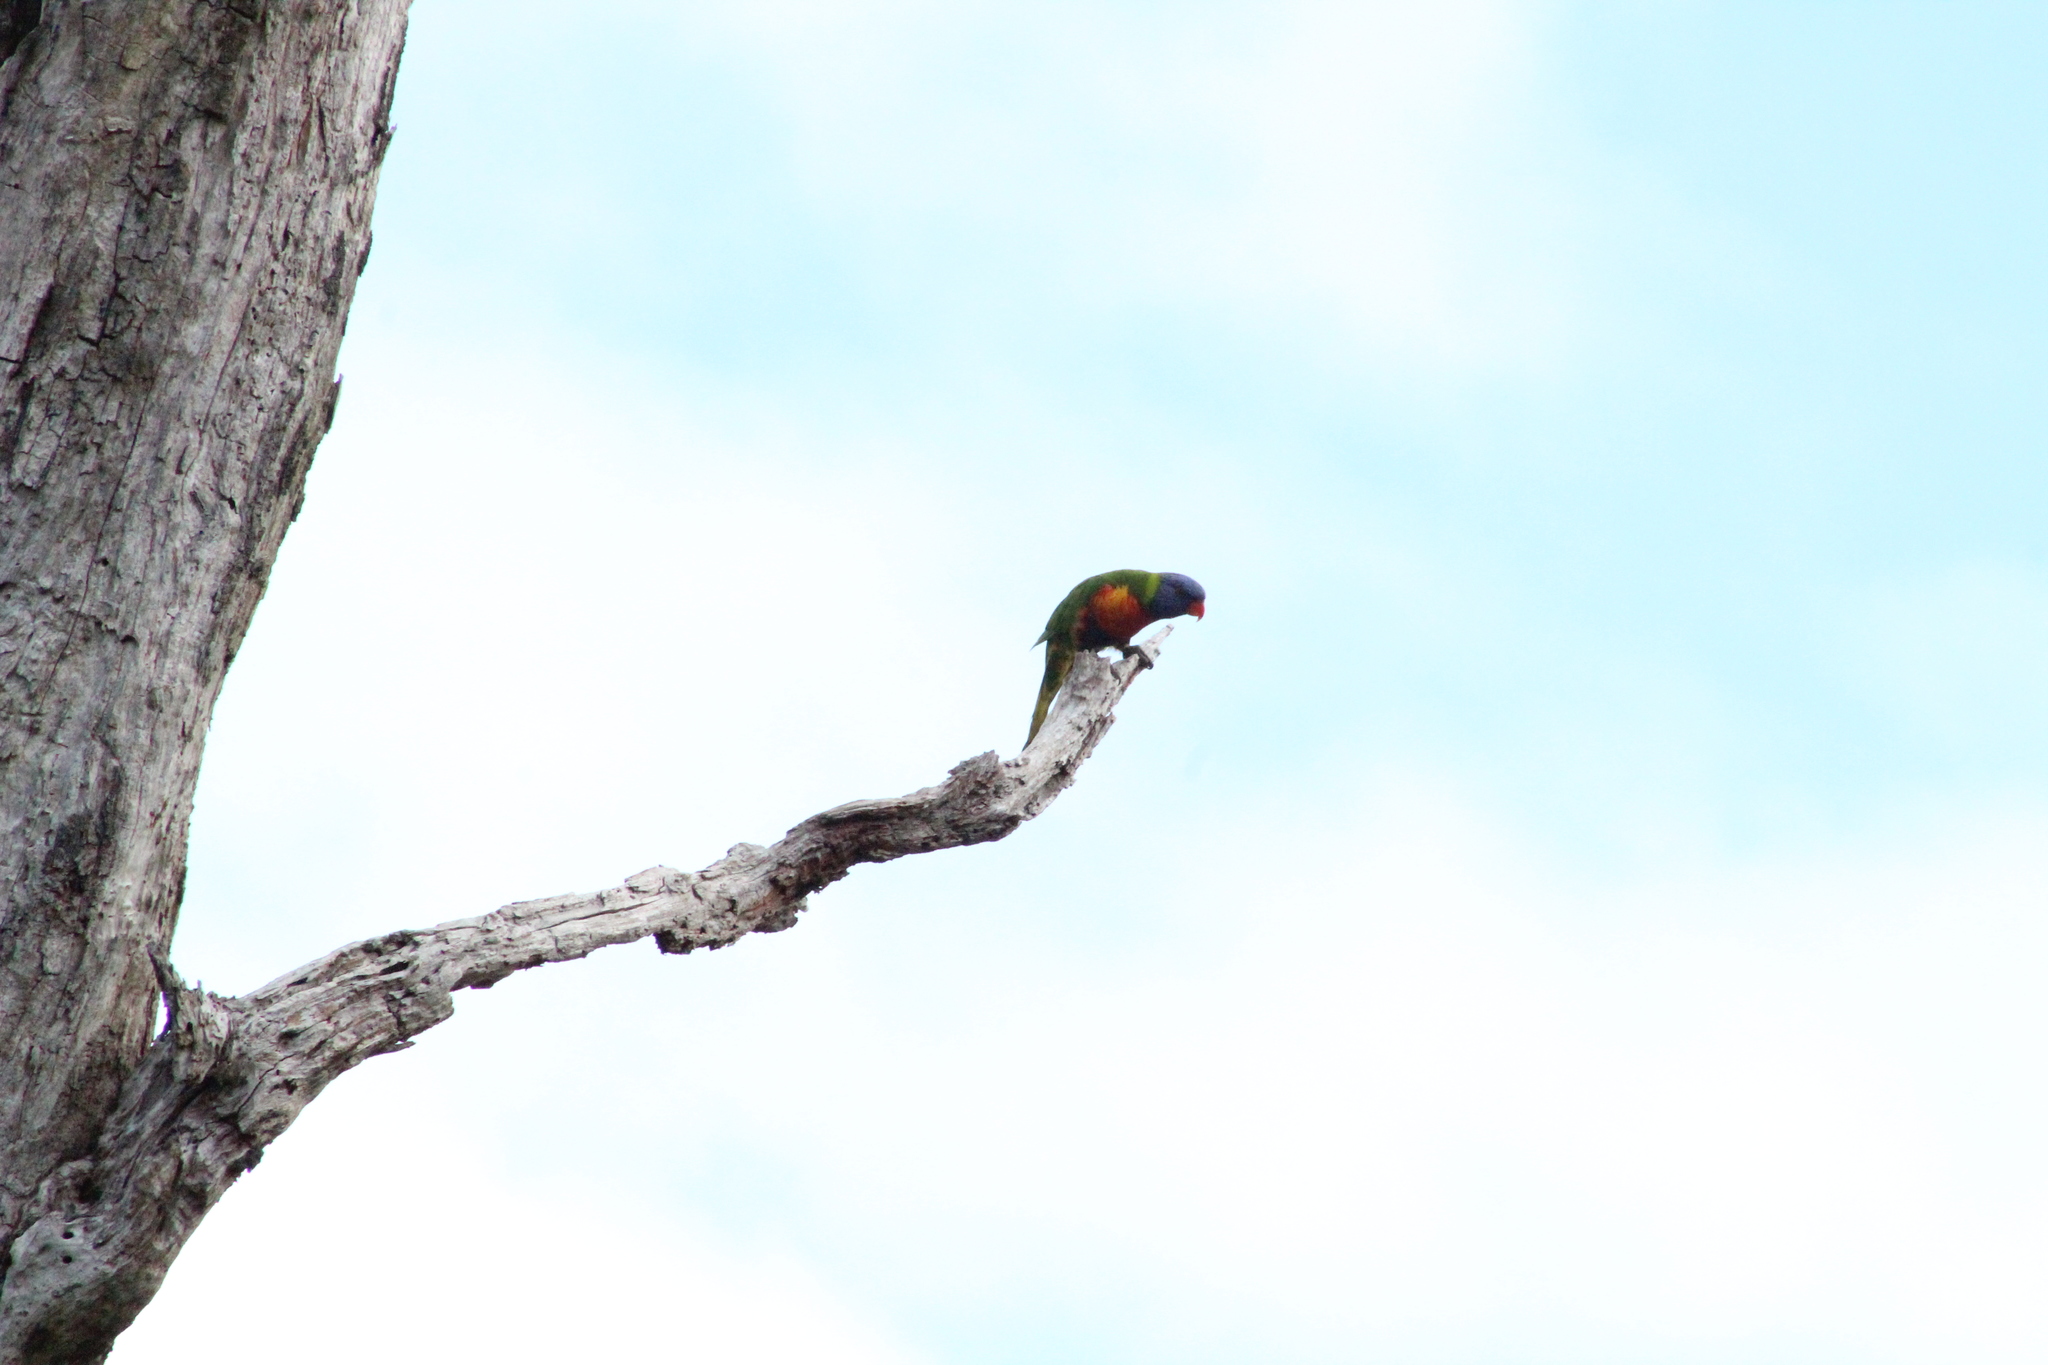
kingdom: Animalia
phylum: Chordata
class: Aves
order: Psittaciformes
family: Psittacidae
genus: Trichoglossus
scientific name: Trichoglossus haematodus
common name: Coconut lorikeet
